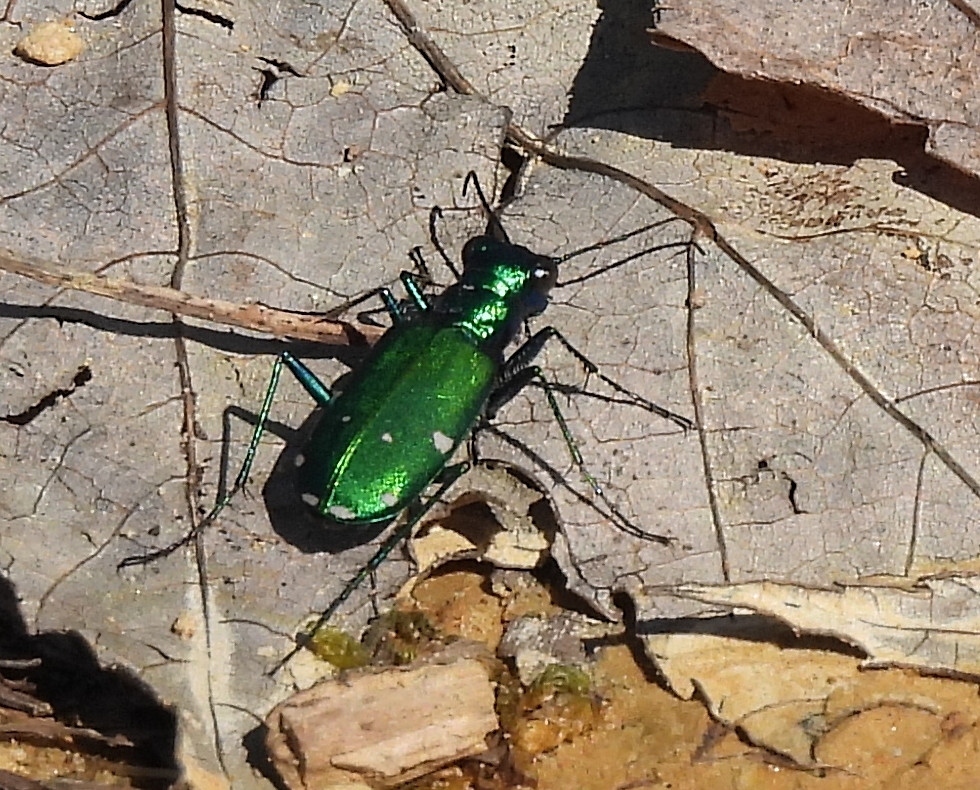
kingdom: Animalia
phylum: Arthropoda
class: Insecta
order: Coleoptera
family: Carabidae
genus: Cicindela
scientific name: Cicindela sexguttata
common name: Six-spotted tiger beetle
